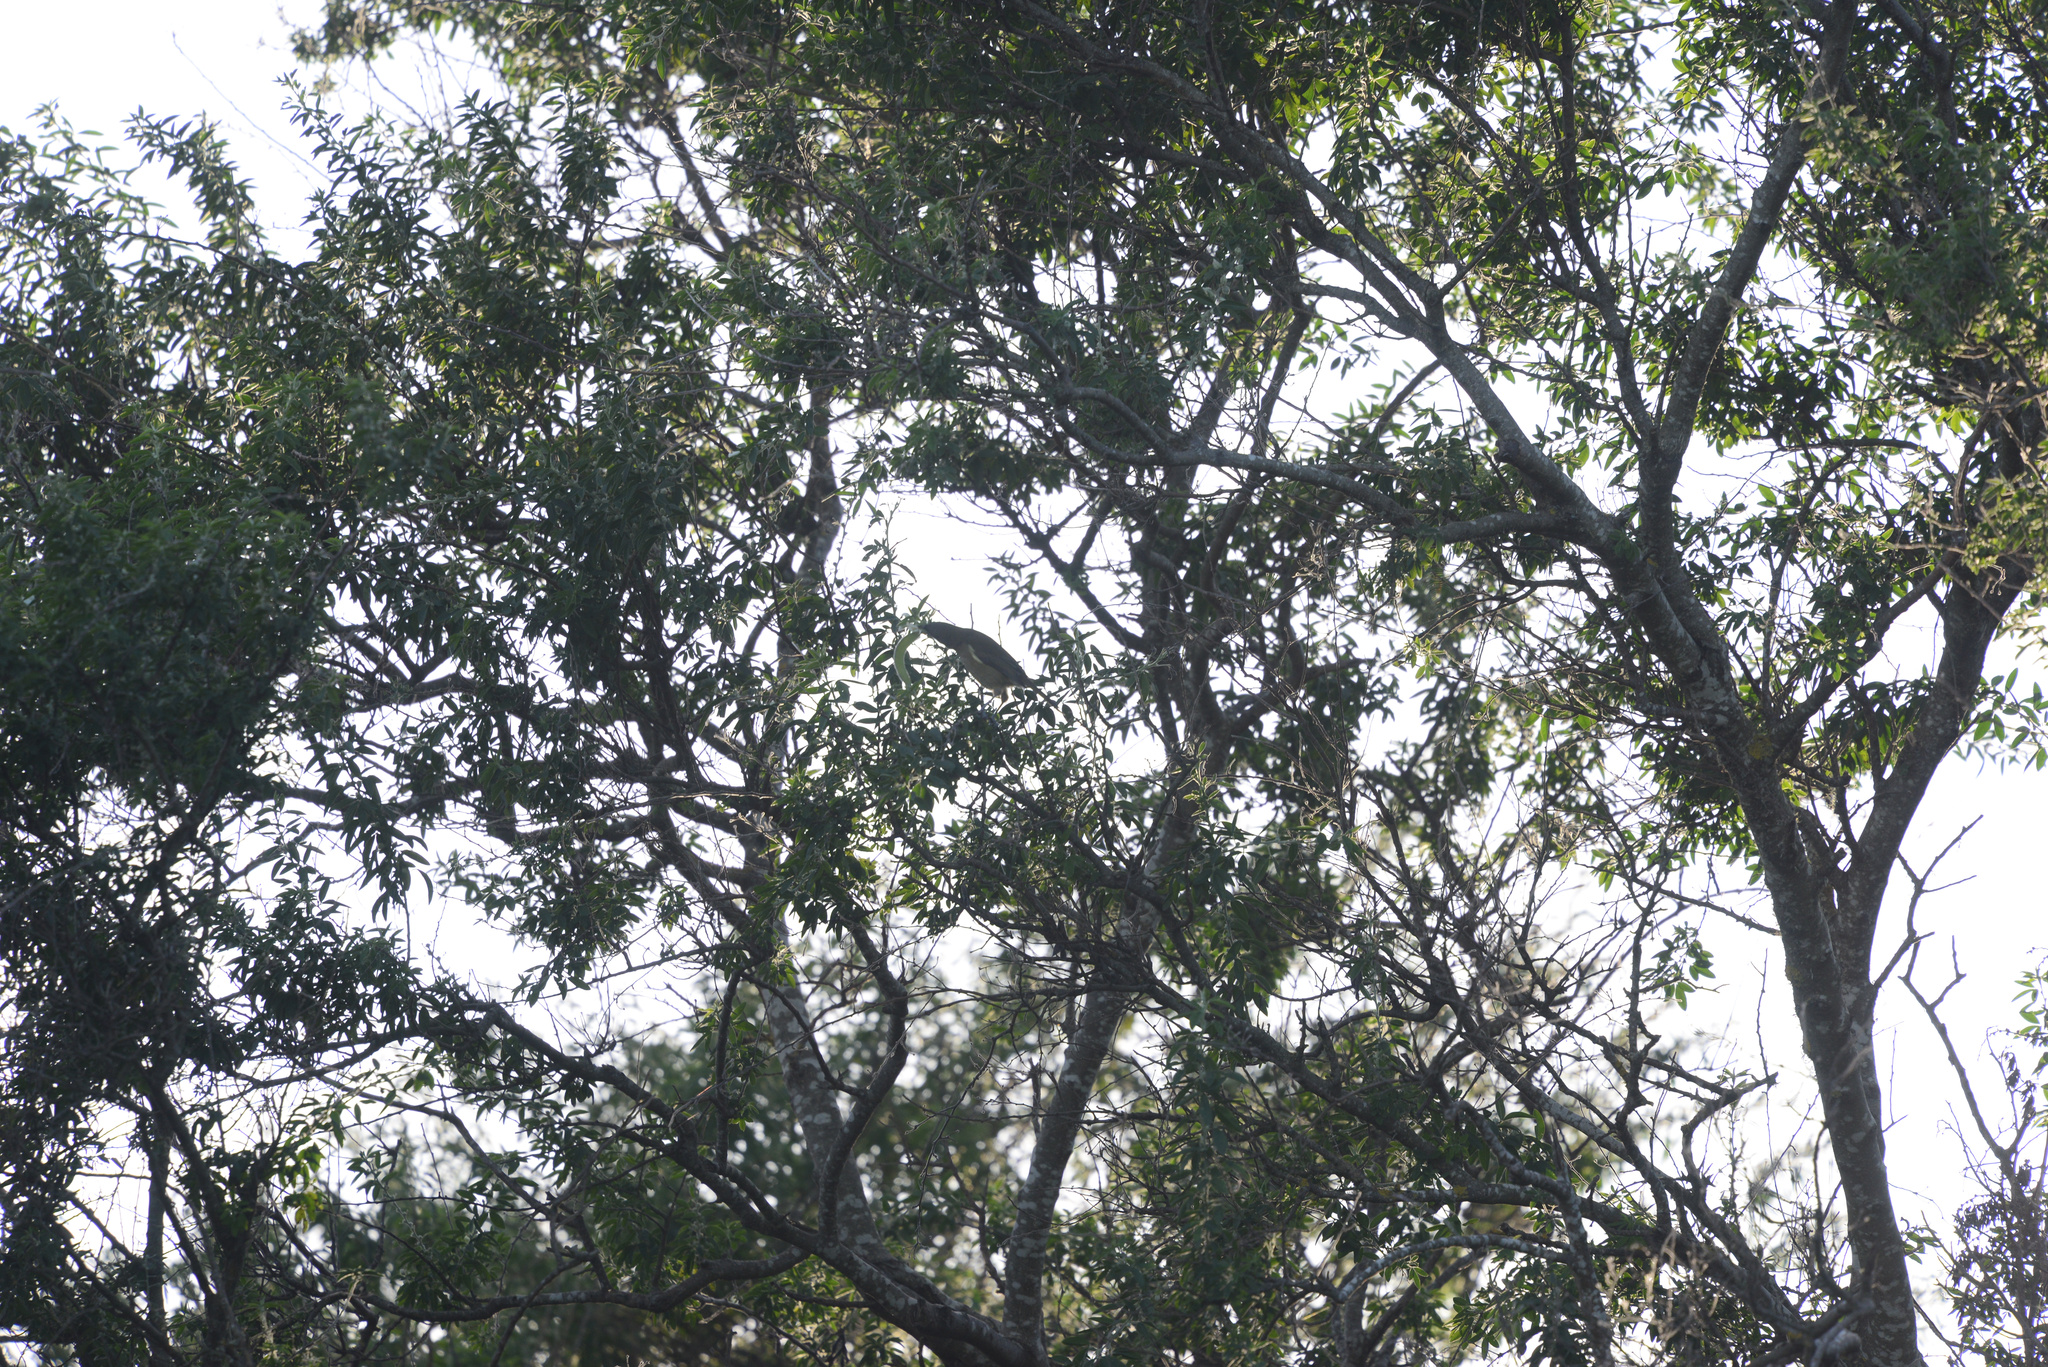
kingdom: Plantae
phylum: Tracheophyta
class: Magnoliopsida
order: Fabales
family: Fabaceae
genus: Chamaecytisus
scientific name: Chamaecytisus prolifer
